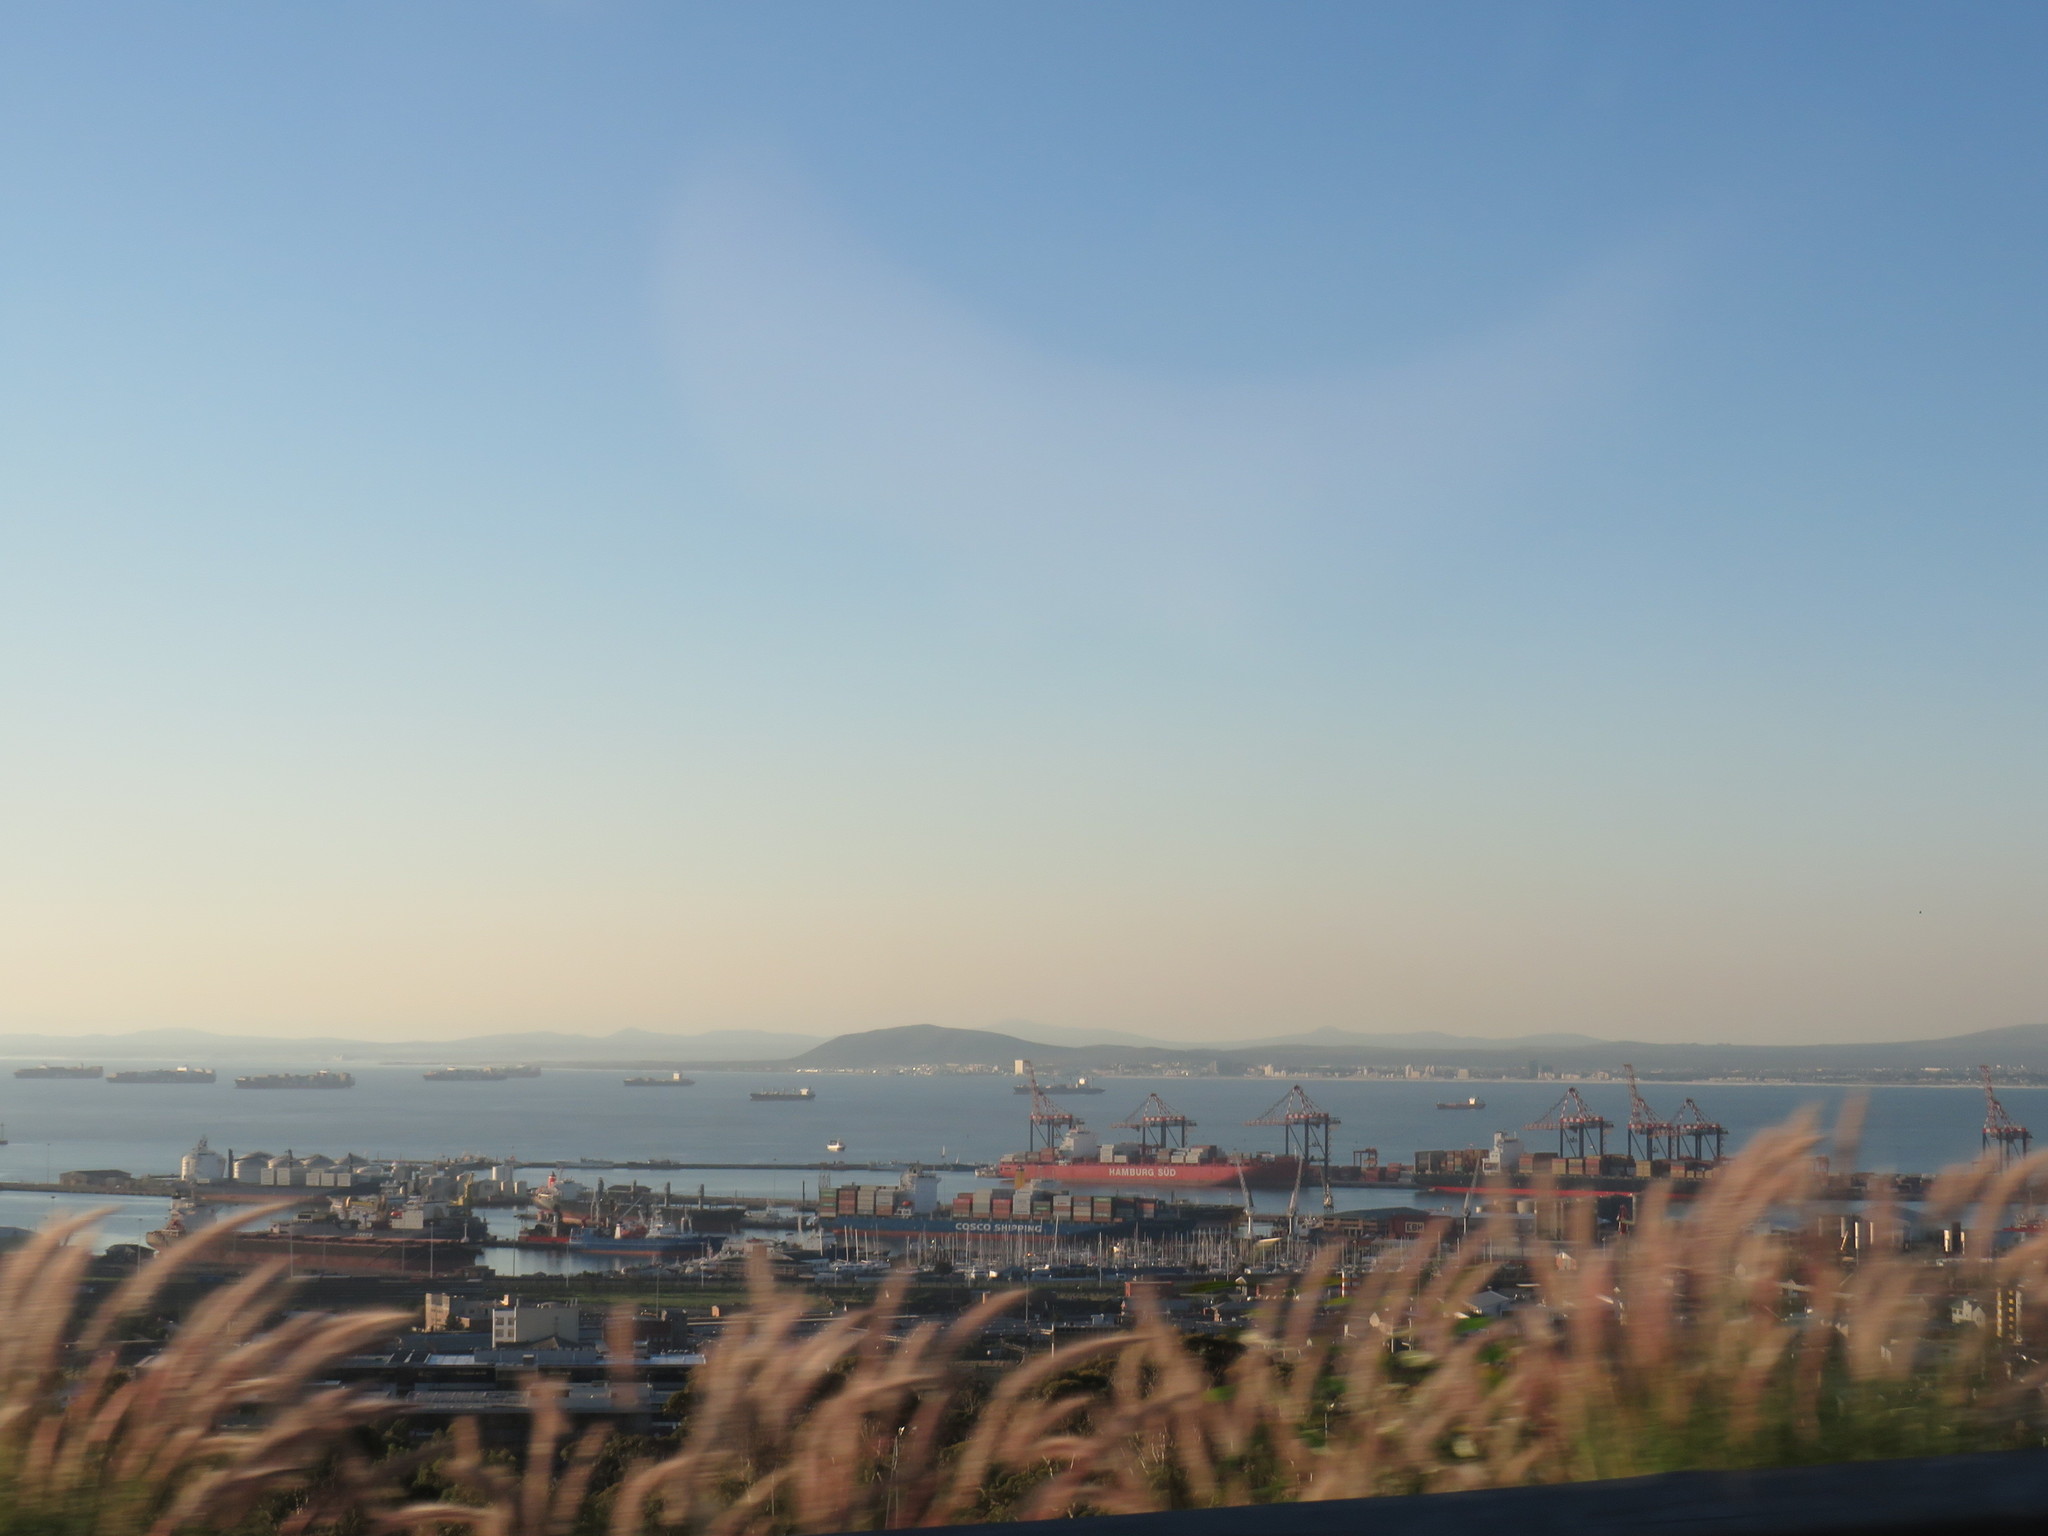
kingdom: Plantae
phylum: Tracheophyta
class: Liliopsida
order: Poales
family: Poaceae
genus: Cenchrus
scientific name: Cenchrus setaceus
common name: Crimson fountaingrass
